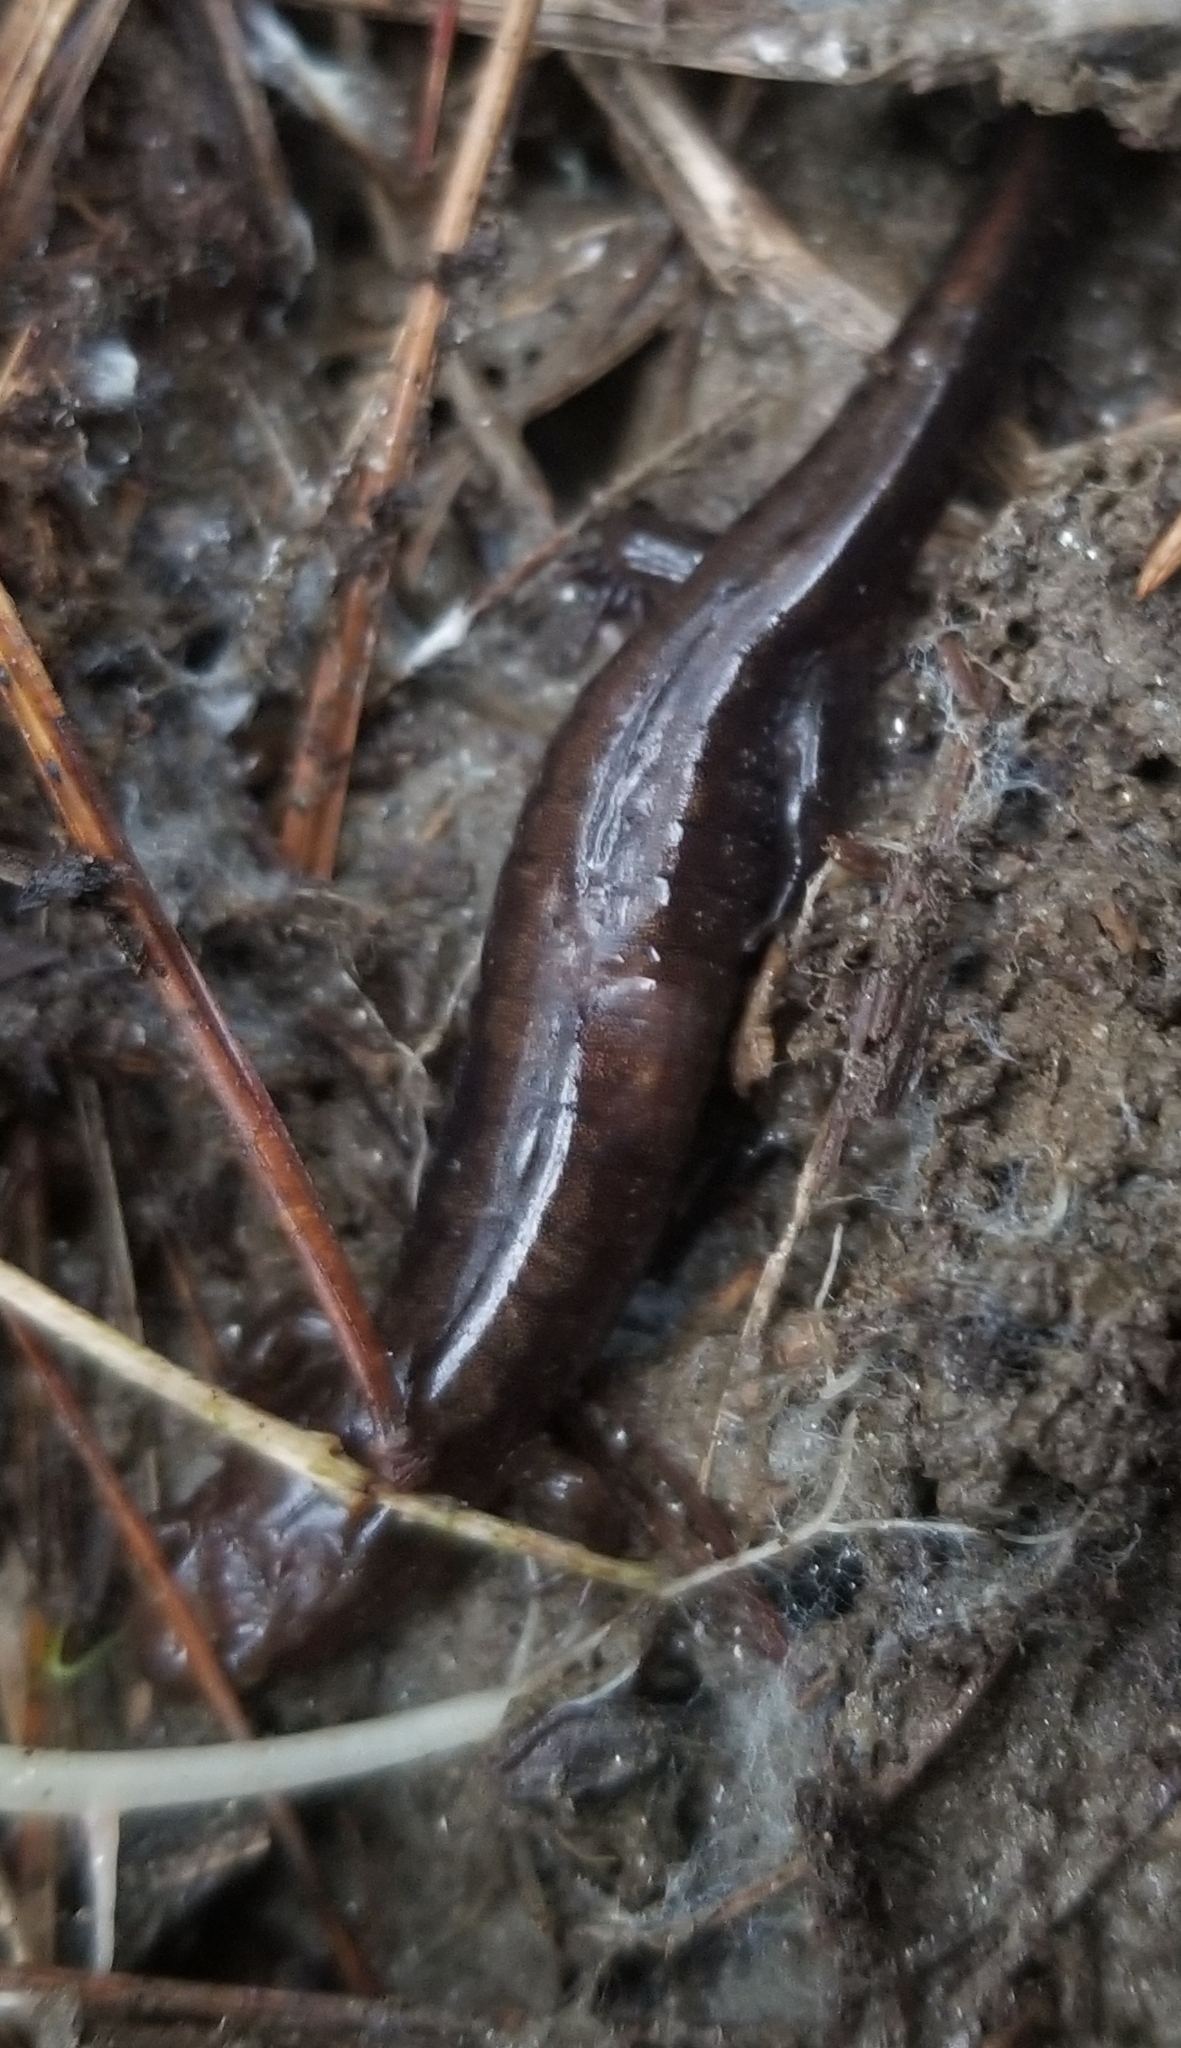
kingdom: Animalia
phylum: Chordata
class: Amphibia
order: Caudata
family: Plethodontidae
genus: Desmognathus
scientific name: Desmognathus carolinensis
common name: Carolina mountain dusky salamander
